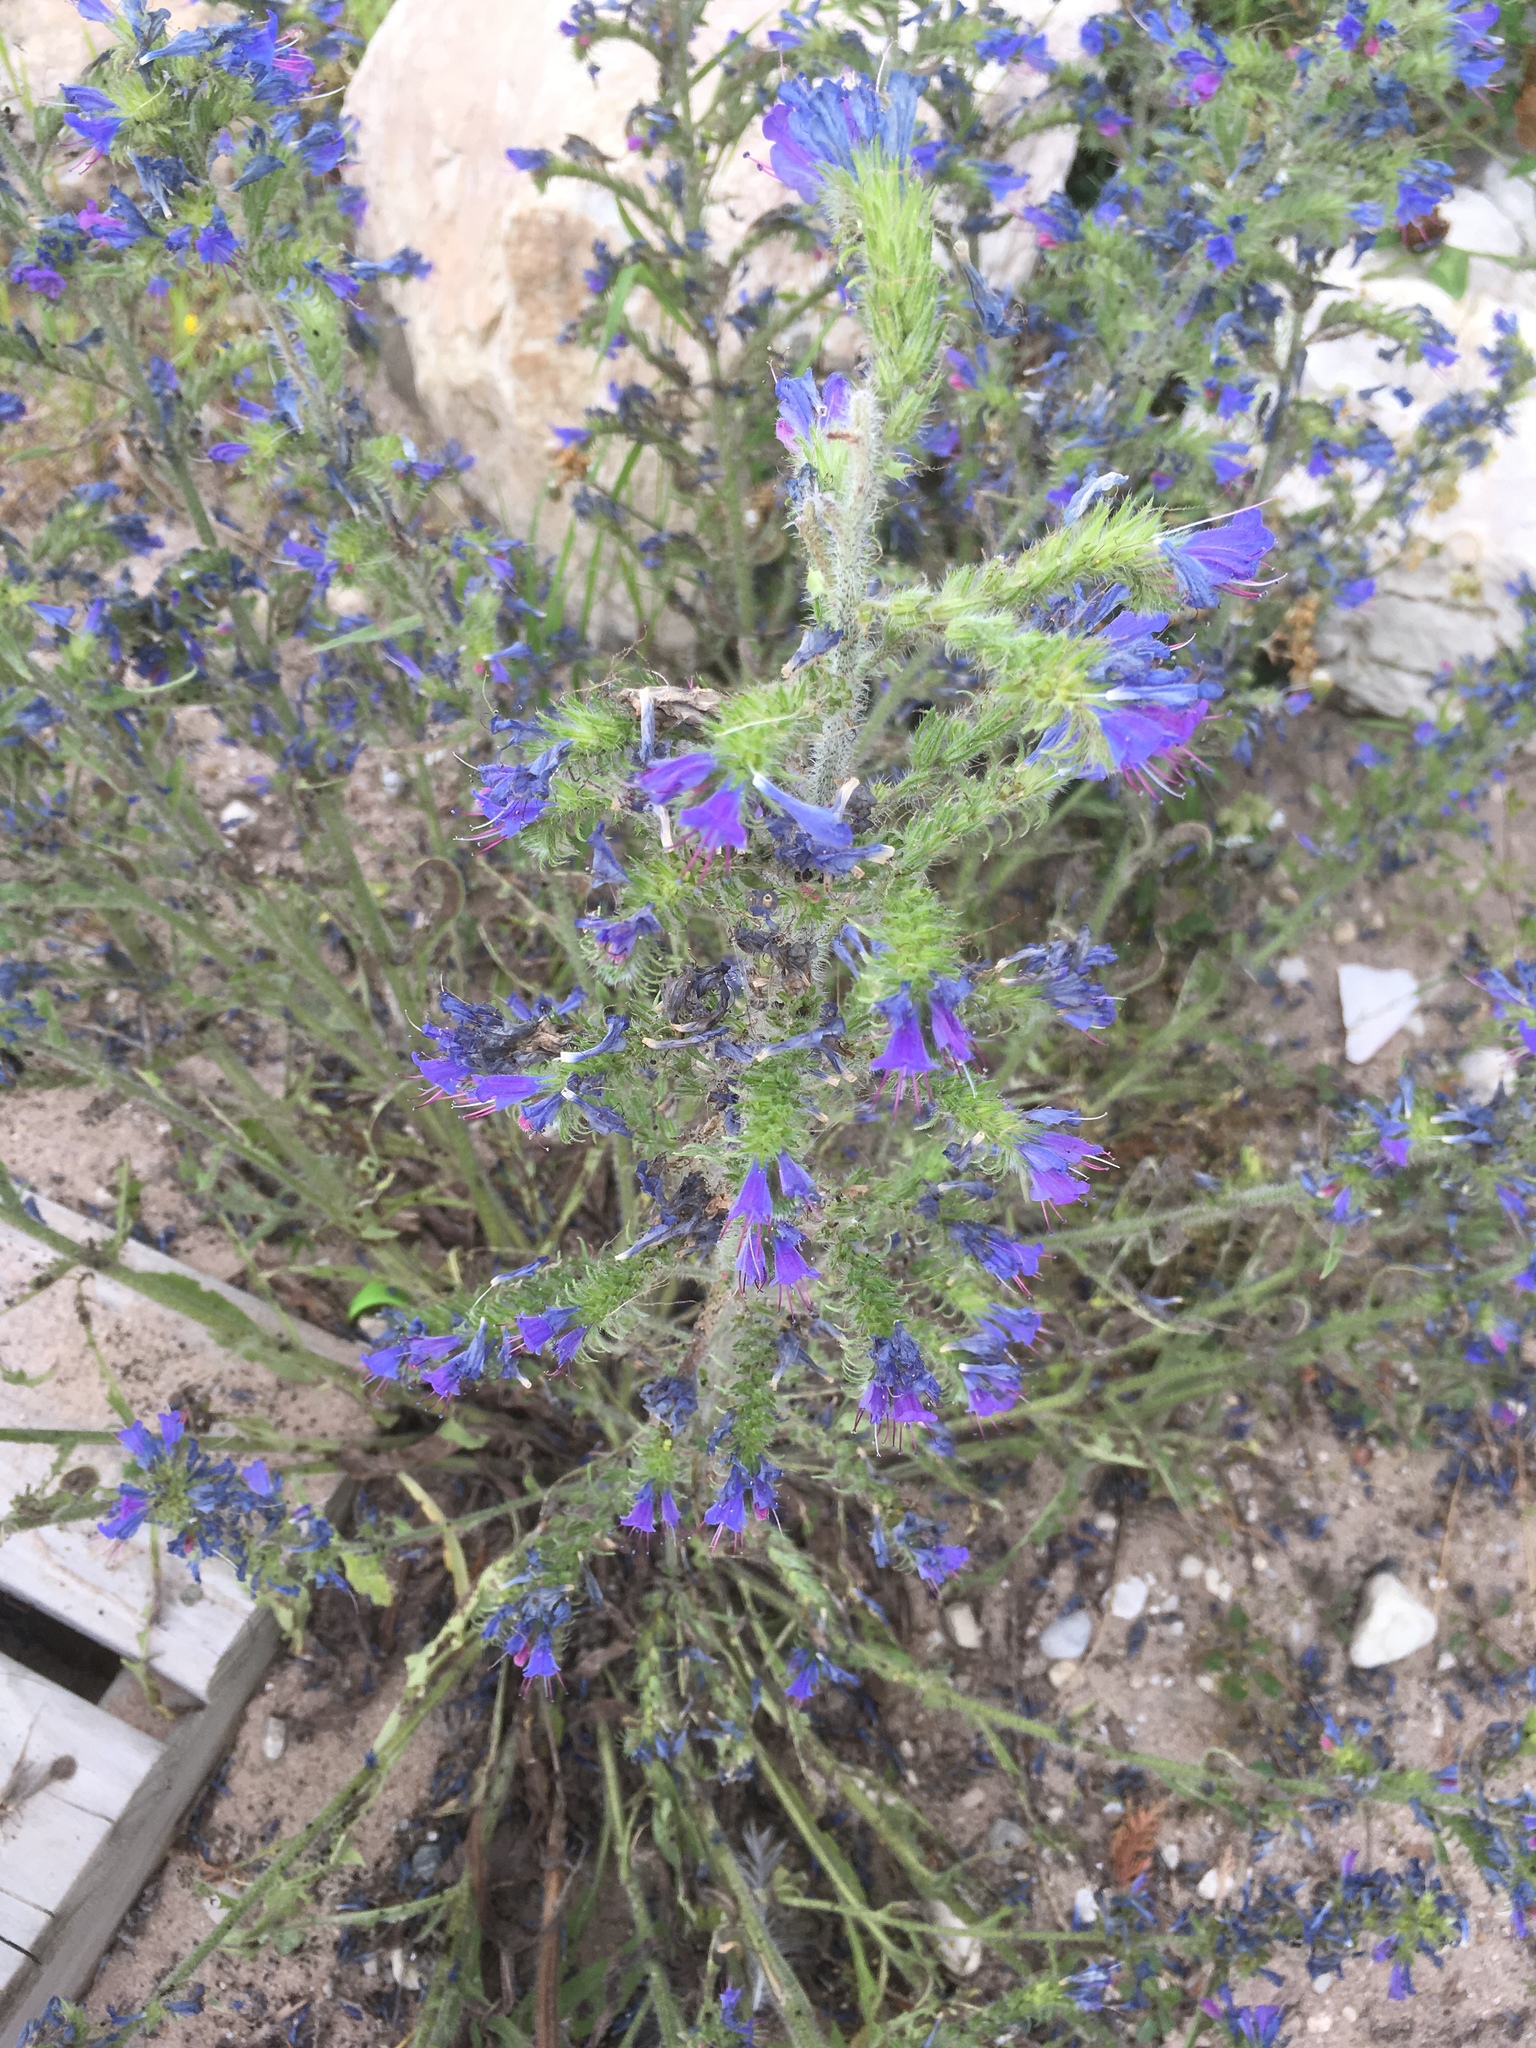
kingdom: Plantae
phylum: Tracheophyta
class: Magnoliopsida
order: Boraginales
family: Boraginaceae
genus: Echium
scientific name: Echium vulgare
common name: Common viper's bugloss
